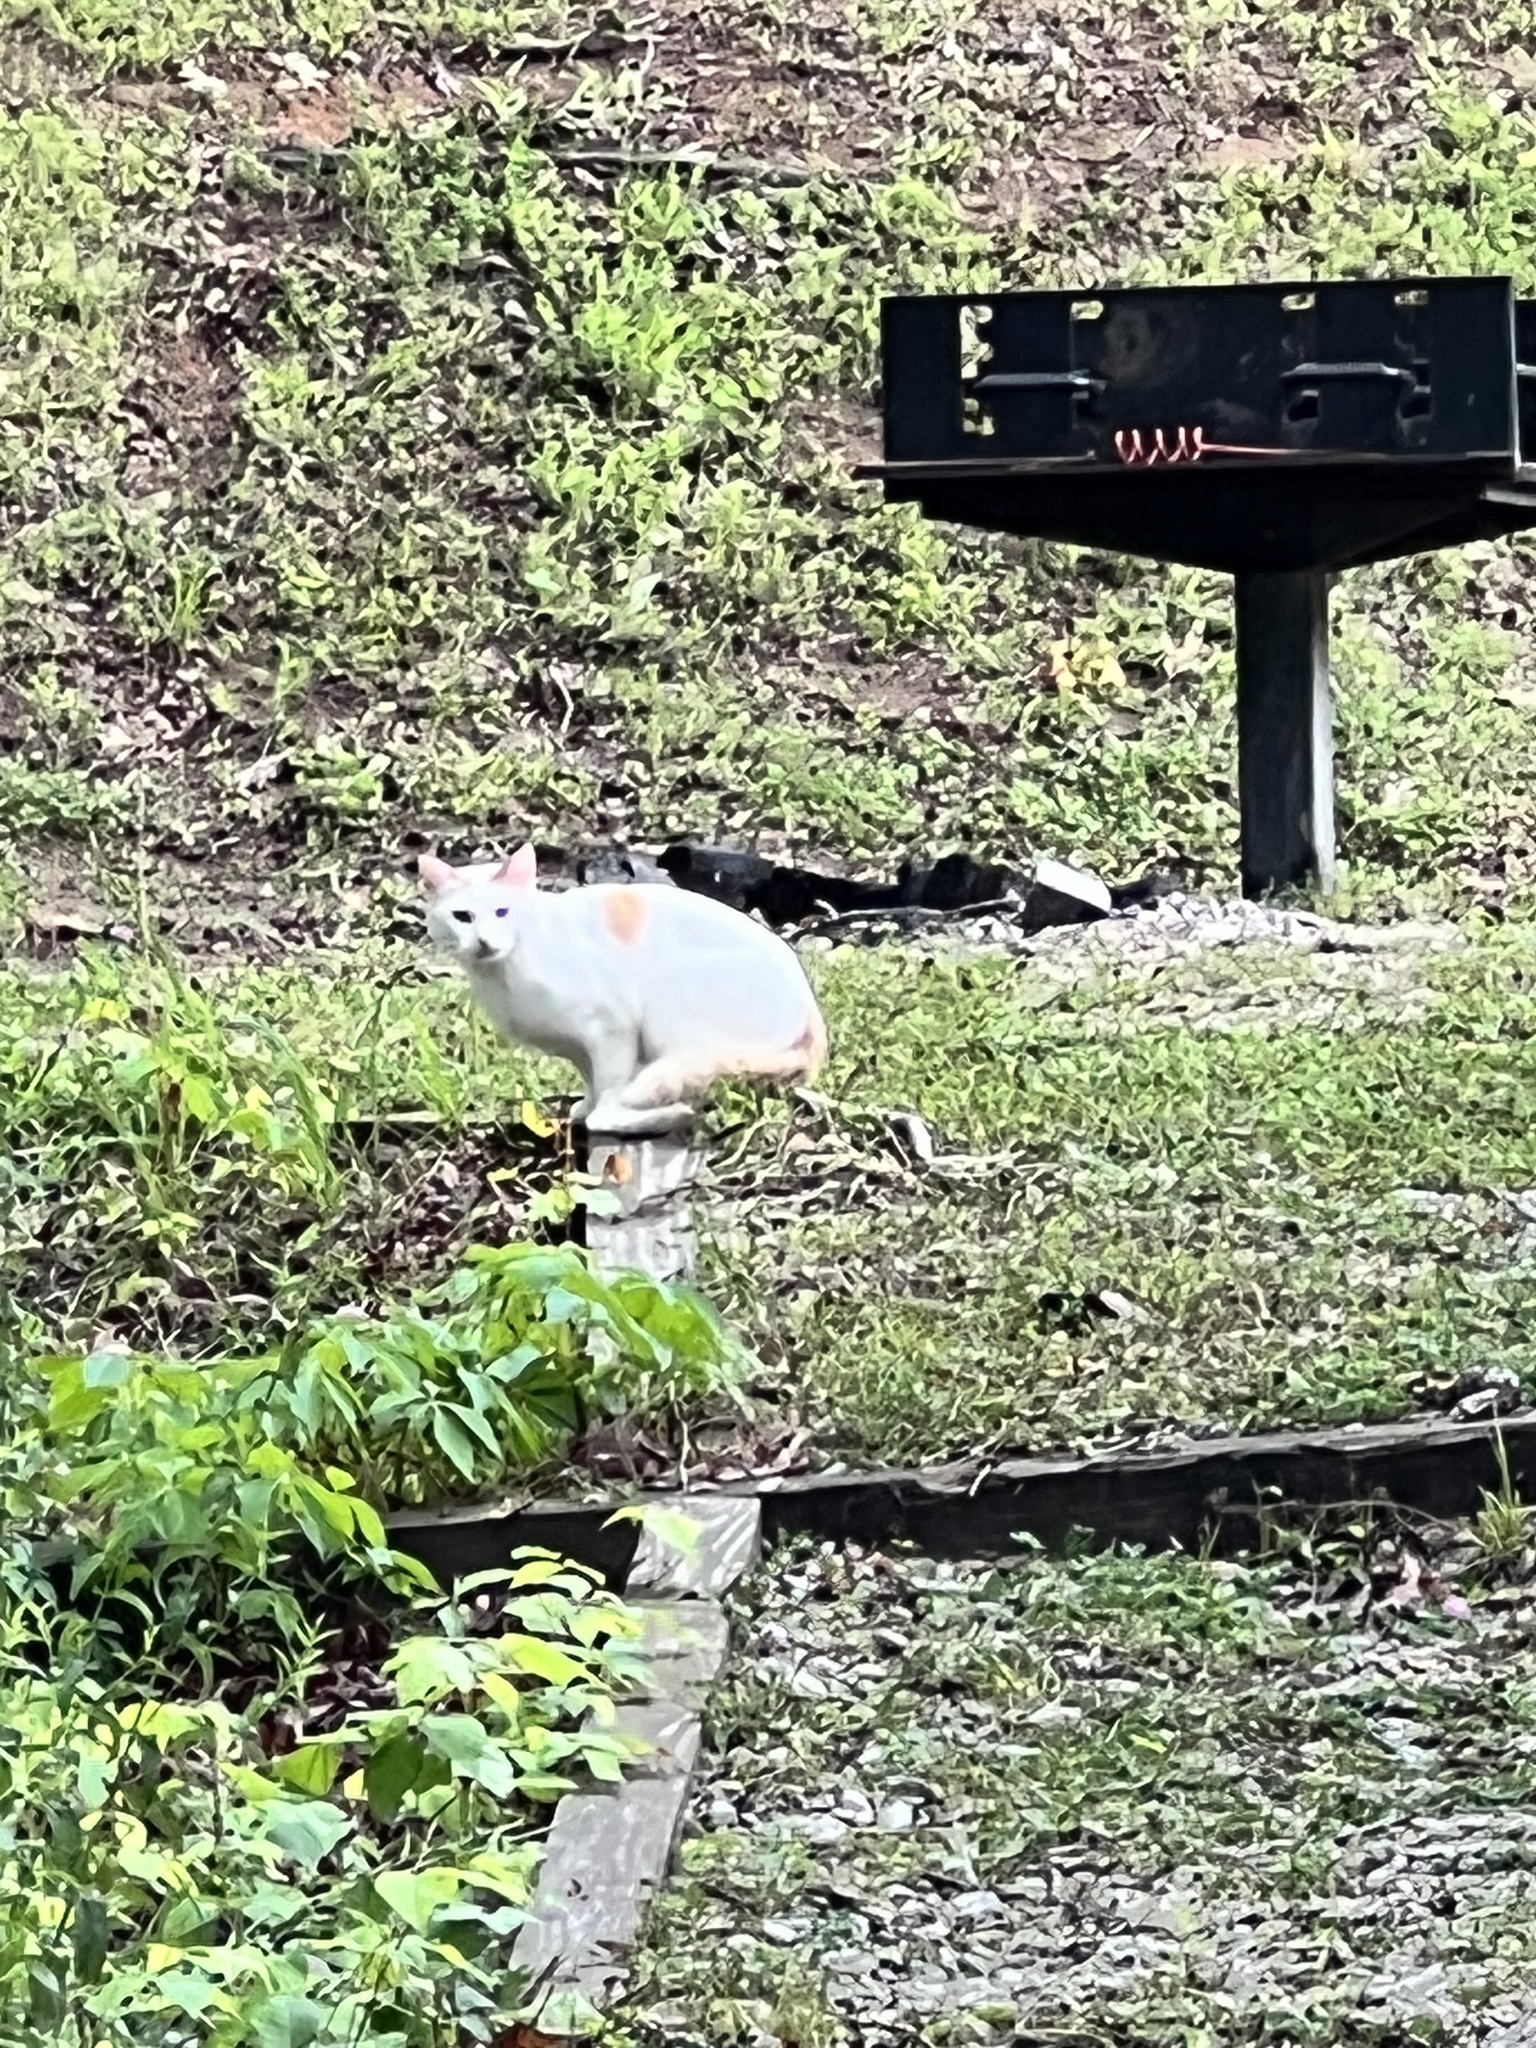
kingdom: Animalia
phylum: Chordata
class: Mammalia
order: Carnivora
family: Felidae
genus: Felis
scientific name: Felis catus
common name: Domestic cat
